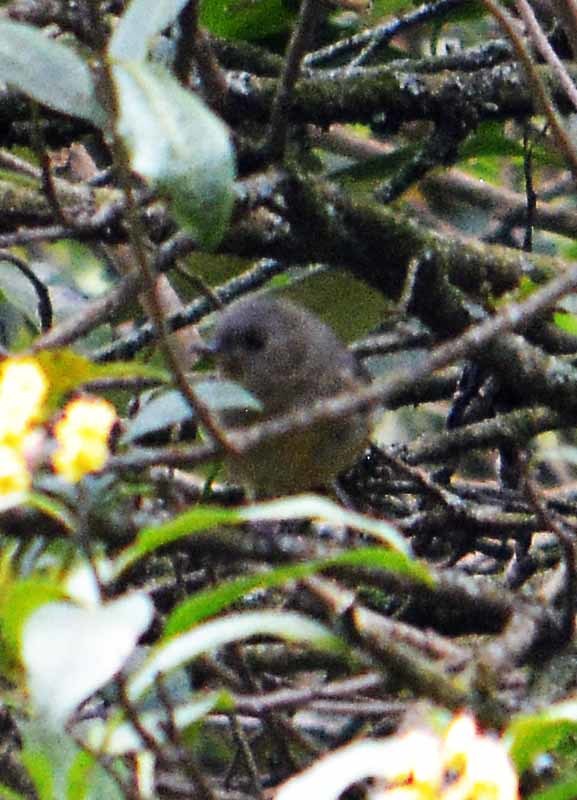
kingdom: Animalia
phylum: Chordata
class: Aves
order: Passeriformes
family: Thraupidae
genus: Diglossa
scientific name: Diglossa baritula
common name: Cinnamon-bellied flowerpiercer
